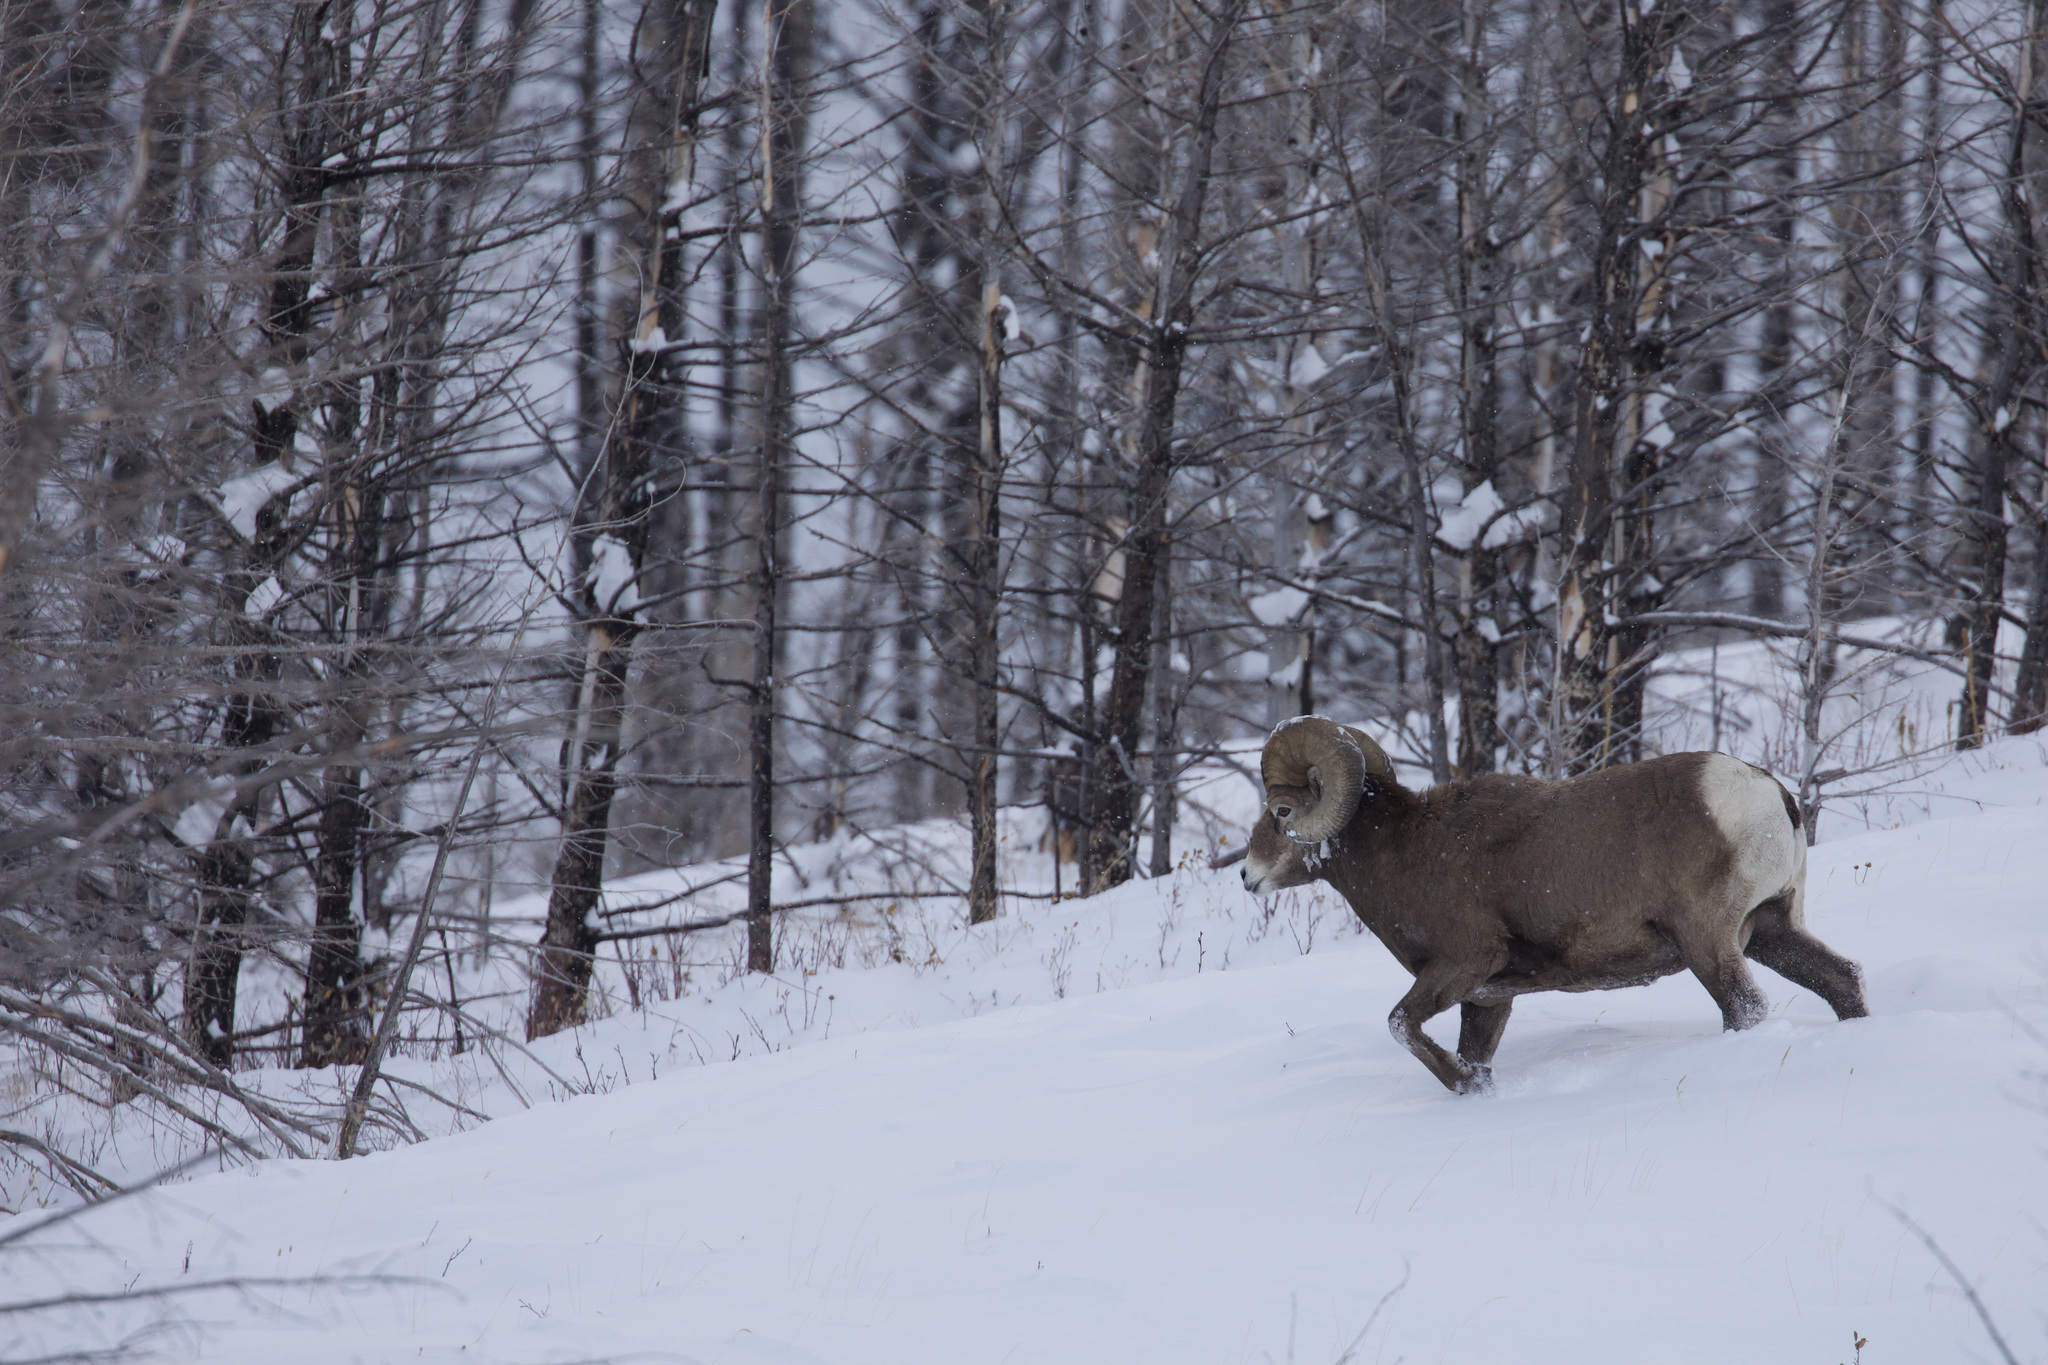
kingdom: Animalia
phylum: Chordata
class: Mammalia
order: Artiodactyla
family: Bovidae
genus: Ovis
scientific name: Ovis canadensis
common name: Bighorn sheep
